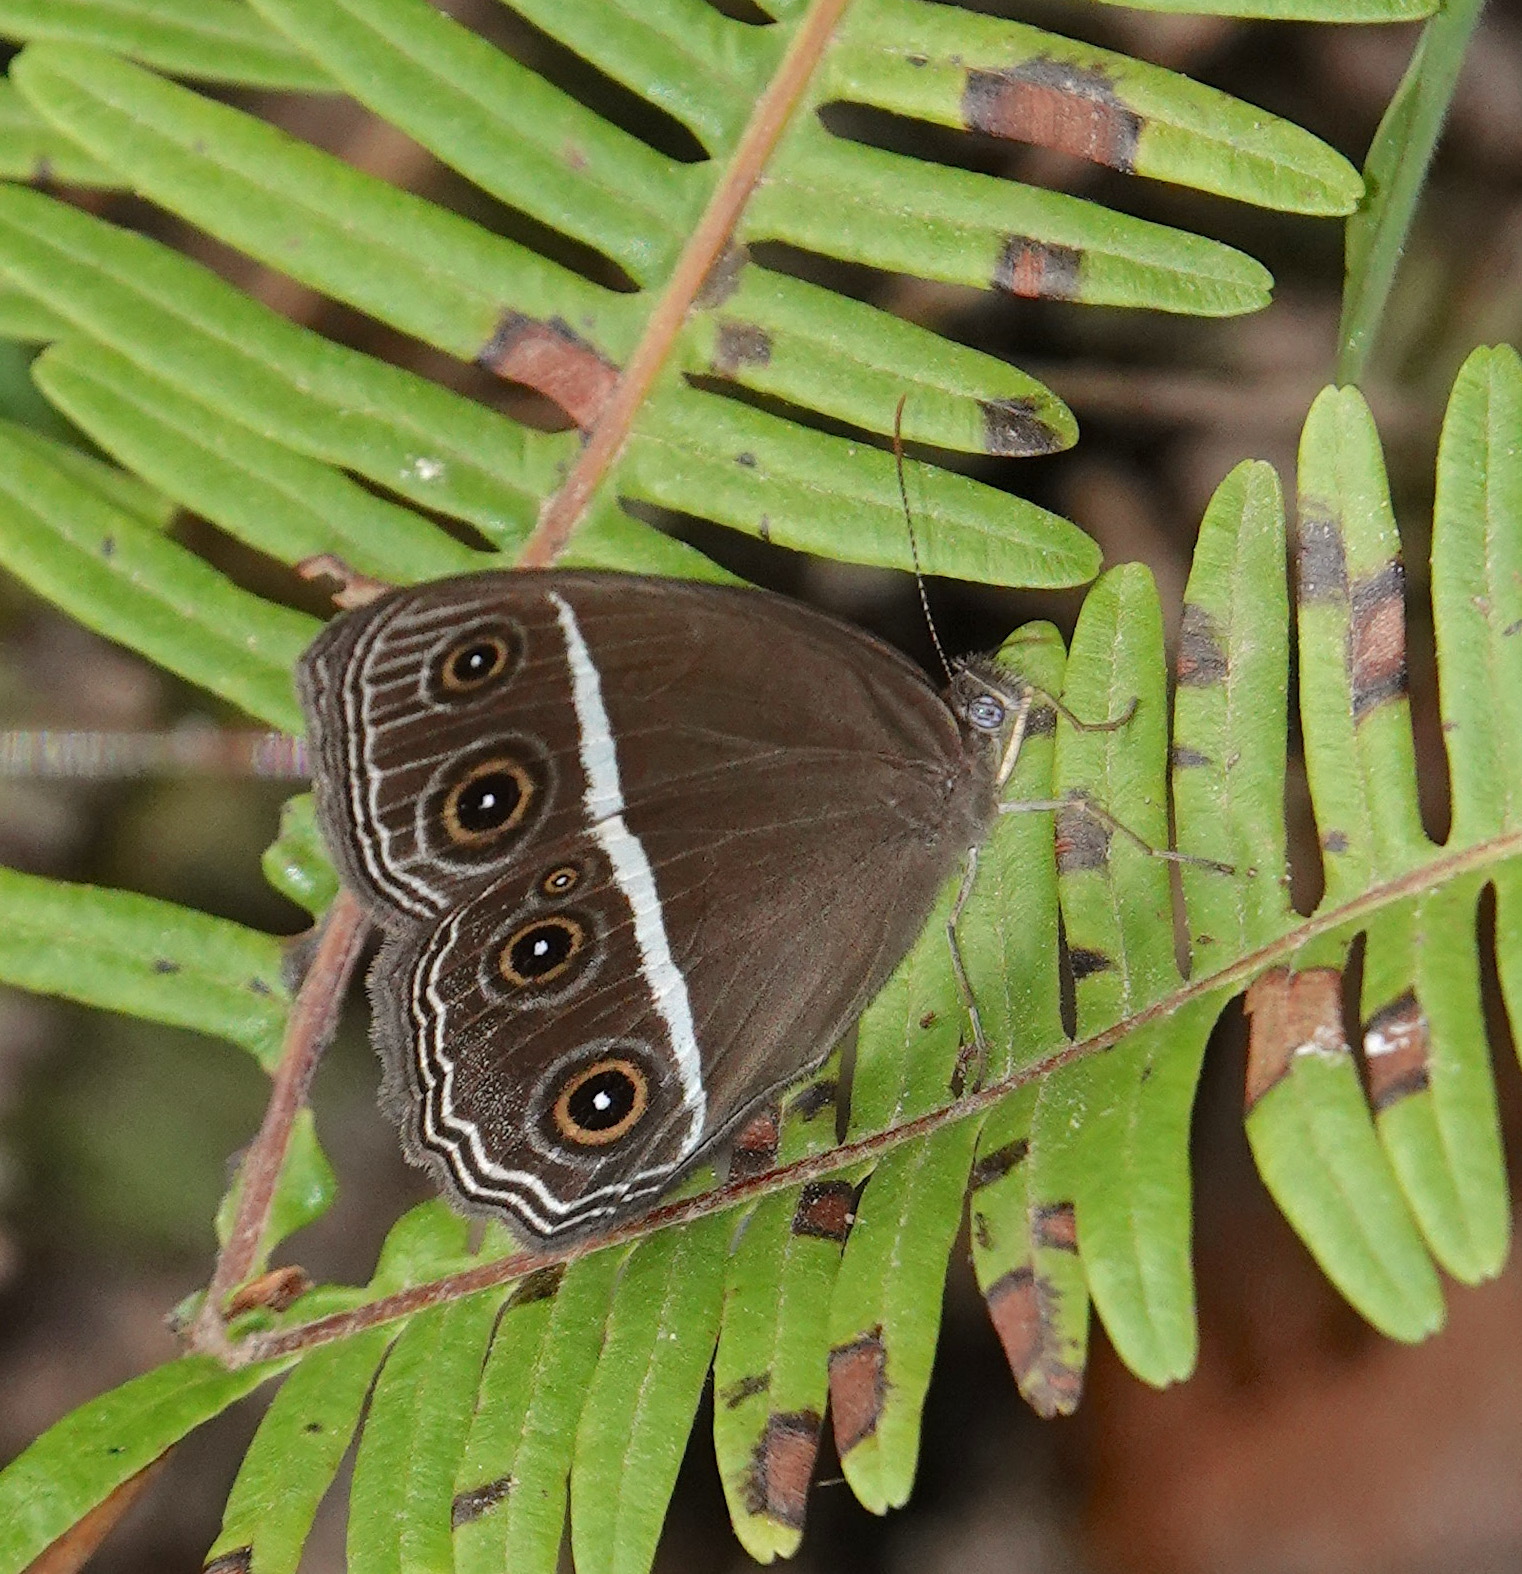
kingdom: Animalia
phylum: Arthropoda
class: Insecta
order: Lepidoptera
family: Nymphalidae
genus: Orsotriaena
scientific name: Orsotriaena medus
